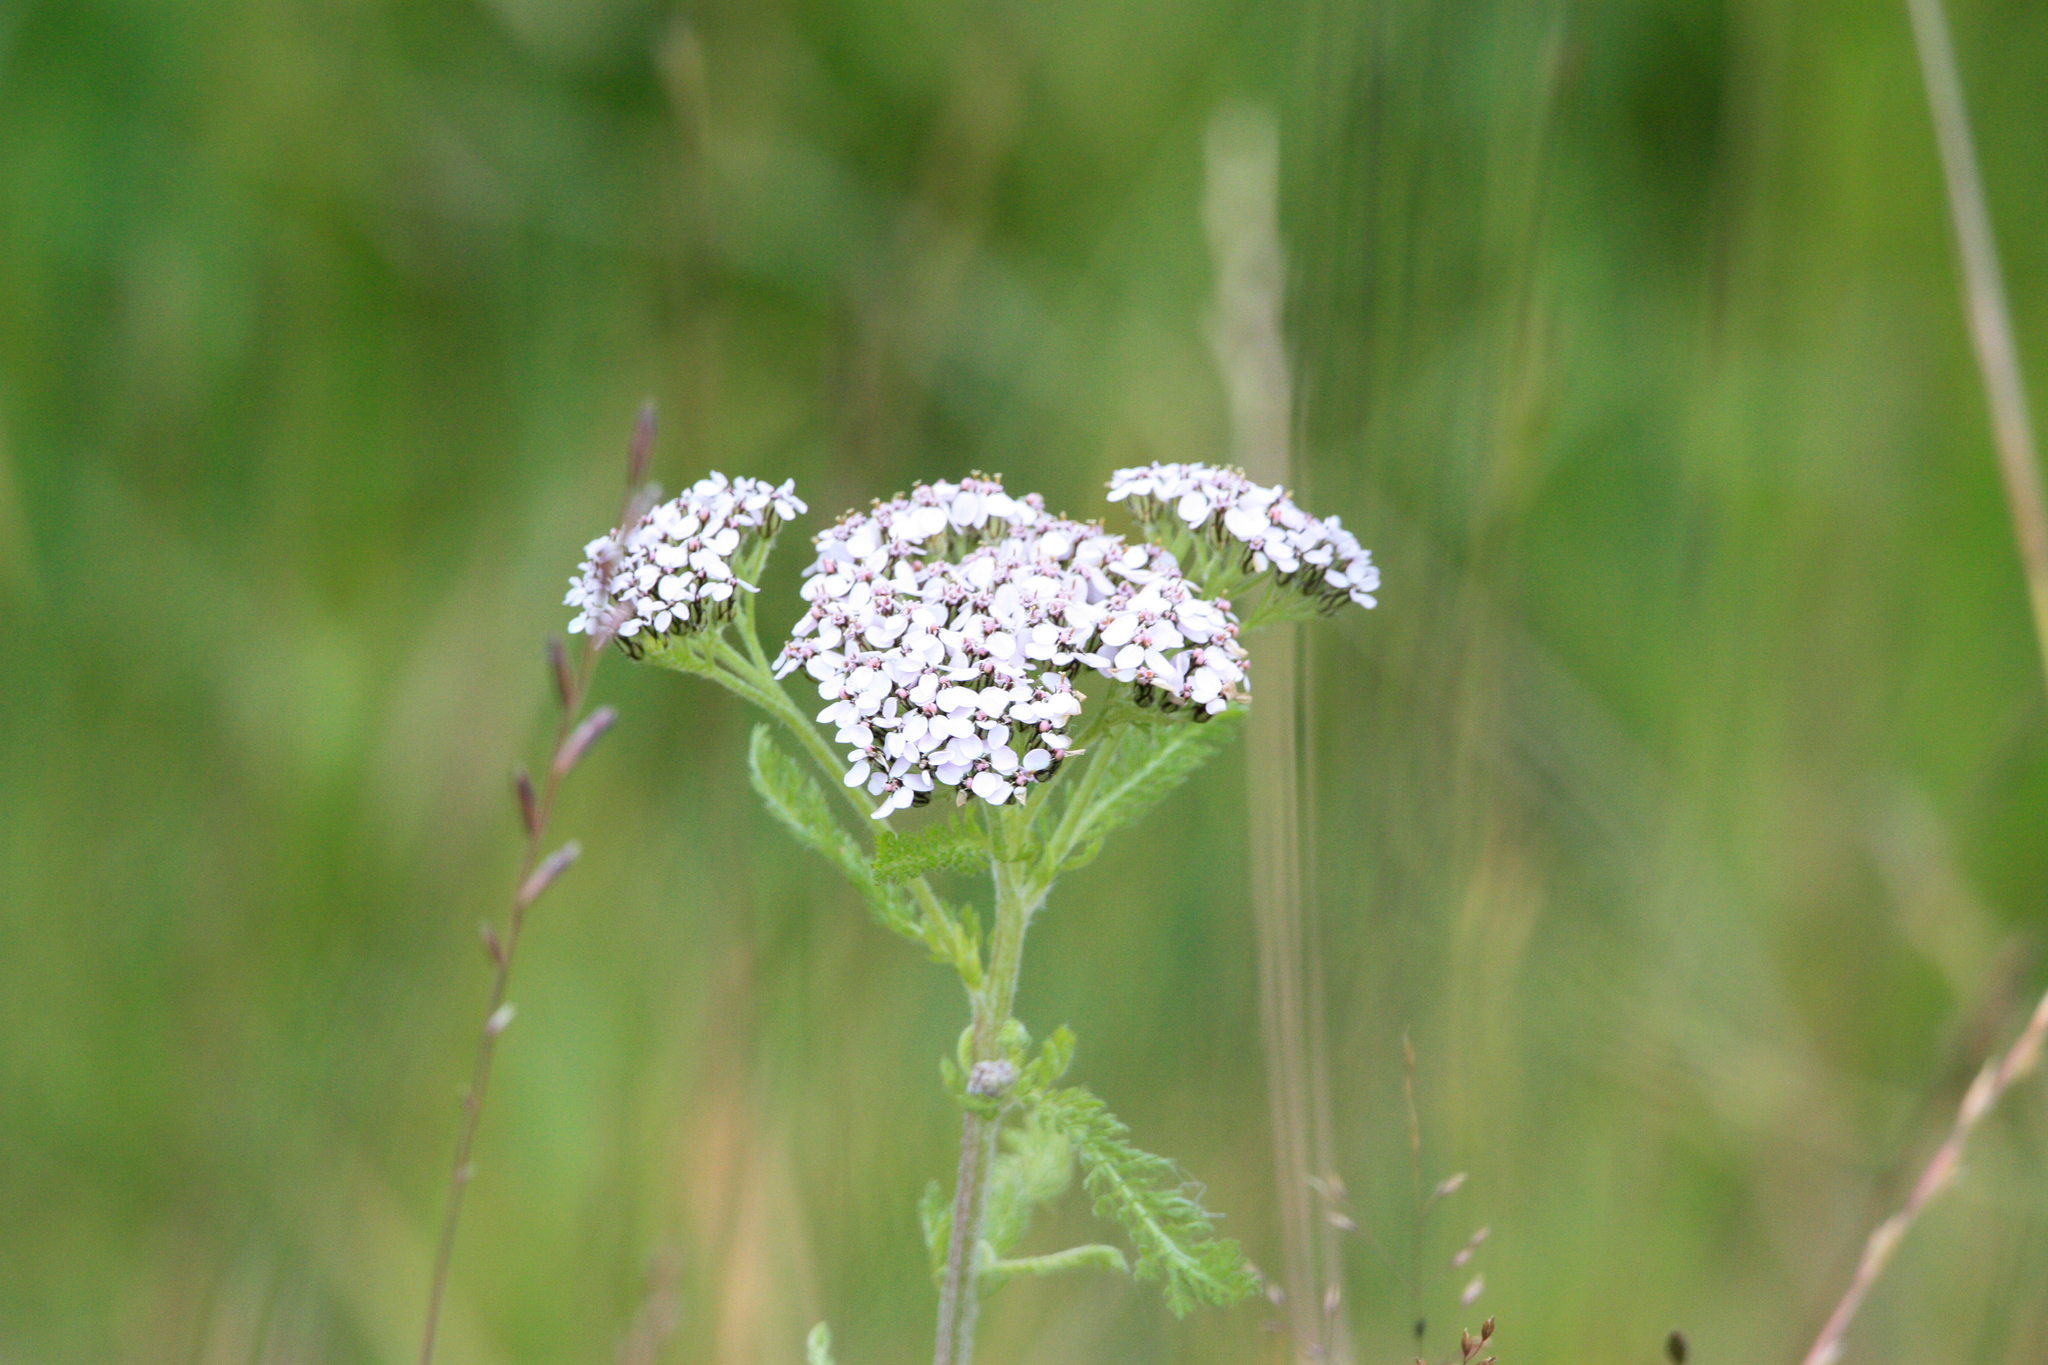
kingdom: Plantae
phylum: Tracheophyta
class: Magnoliopsida
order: Asterales
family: Asteraceae
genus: Achillea
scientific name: Achillea millefolium
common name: Yarrow
